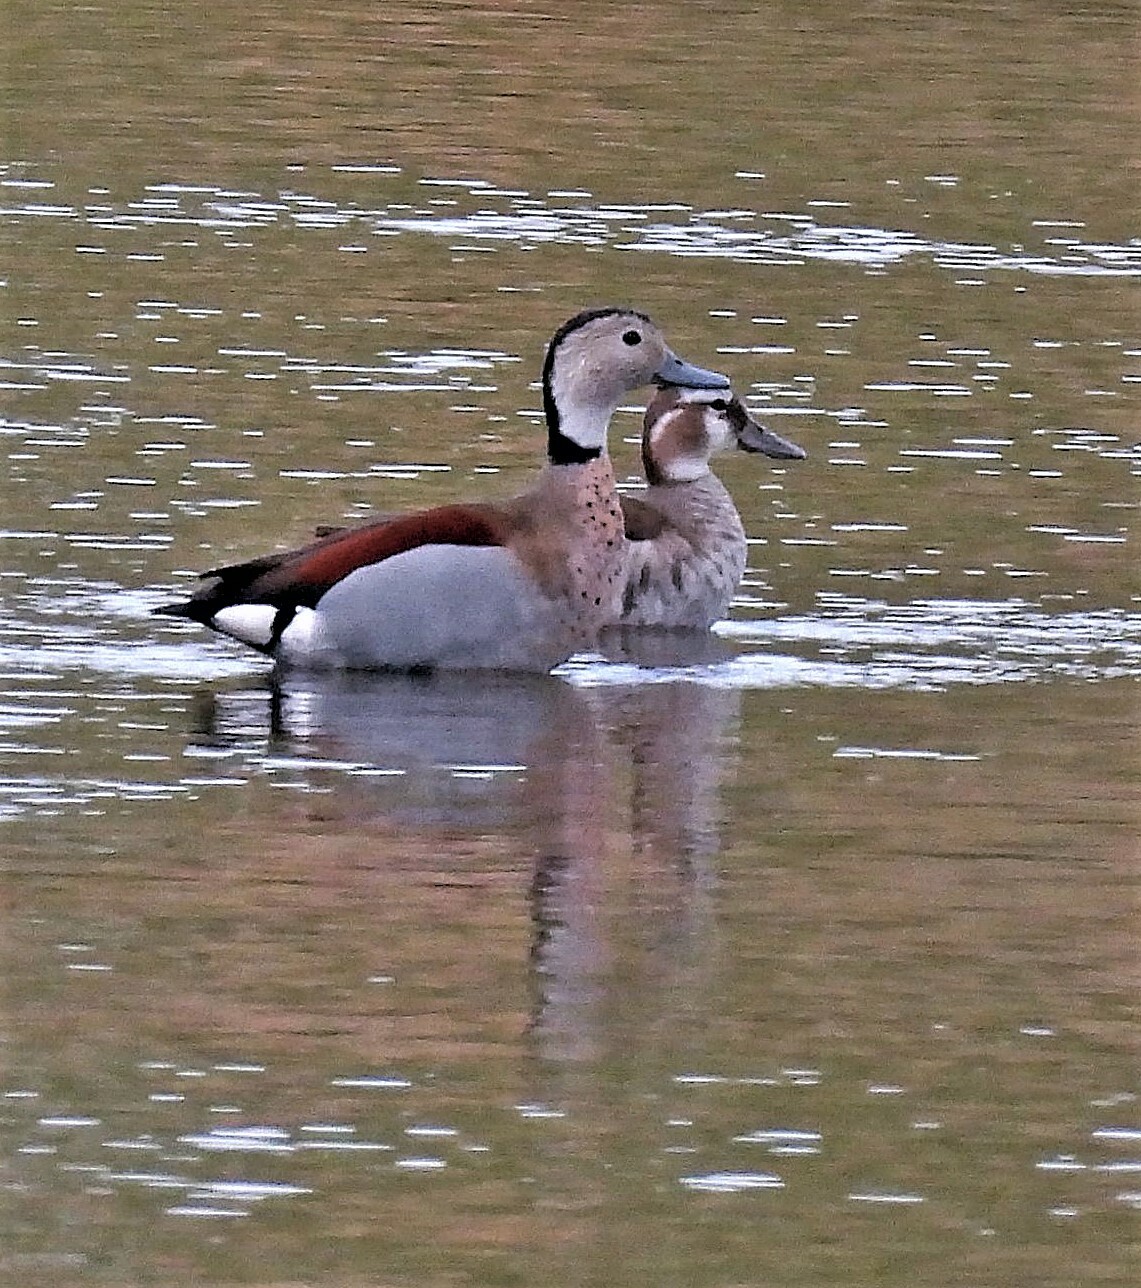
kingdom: Animalia
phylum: Chordata
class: Aves
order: Anseriformes
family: Anatidae
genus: Callonetta
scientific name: Callonetta leucophrys
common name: Ringed teal
